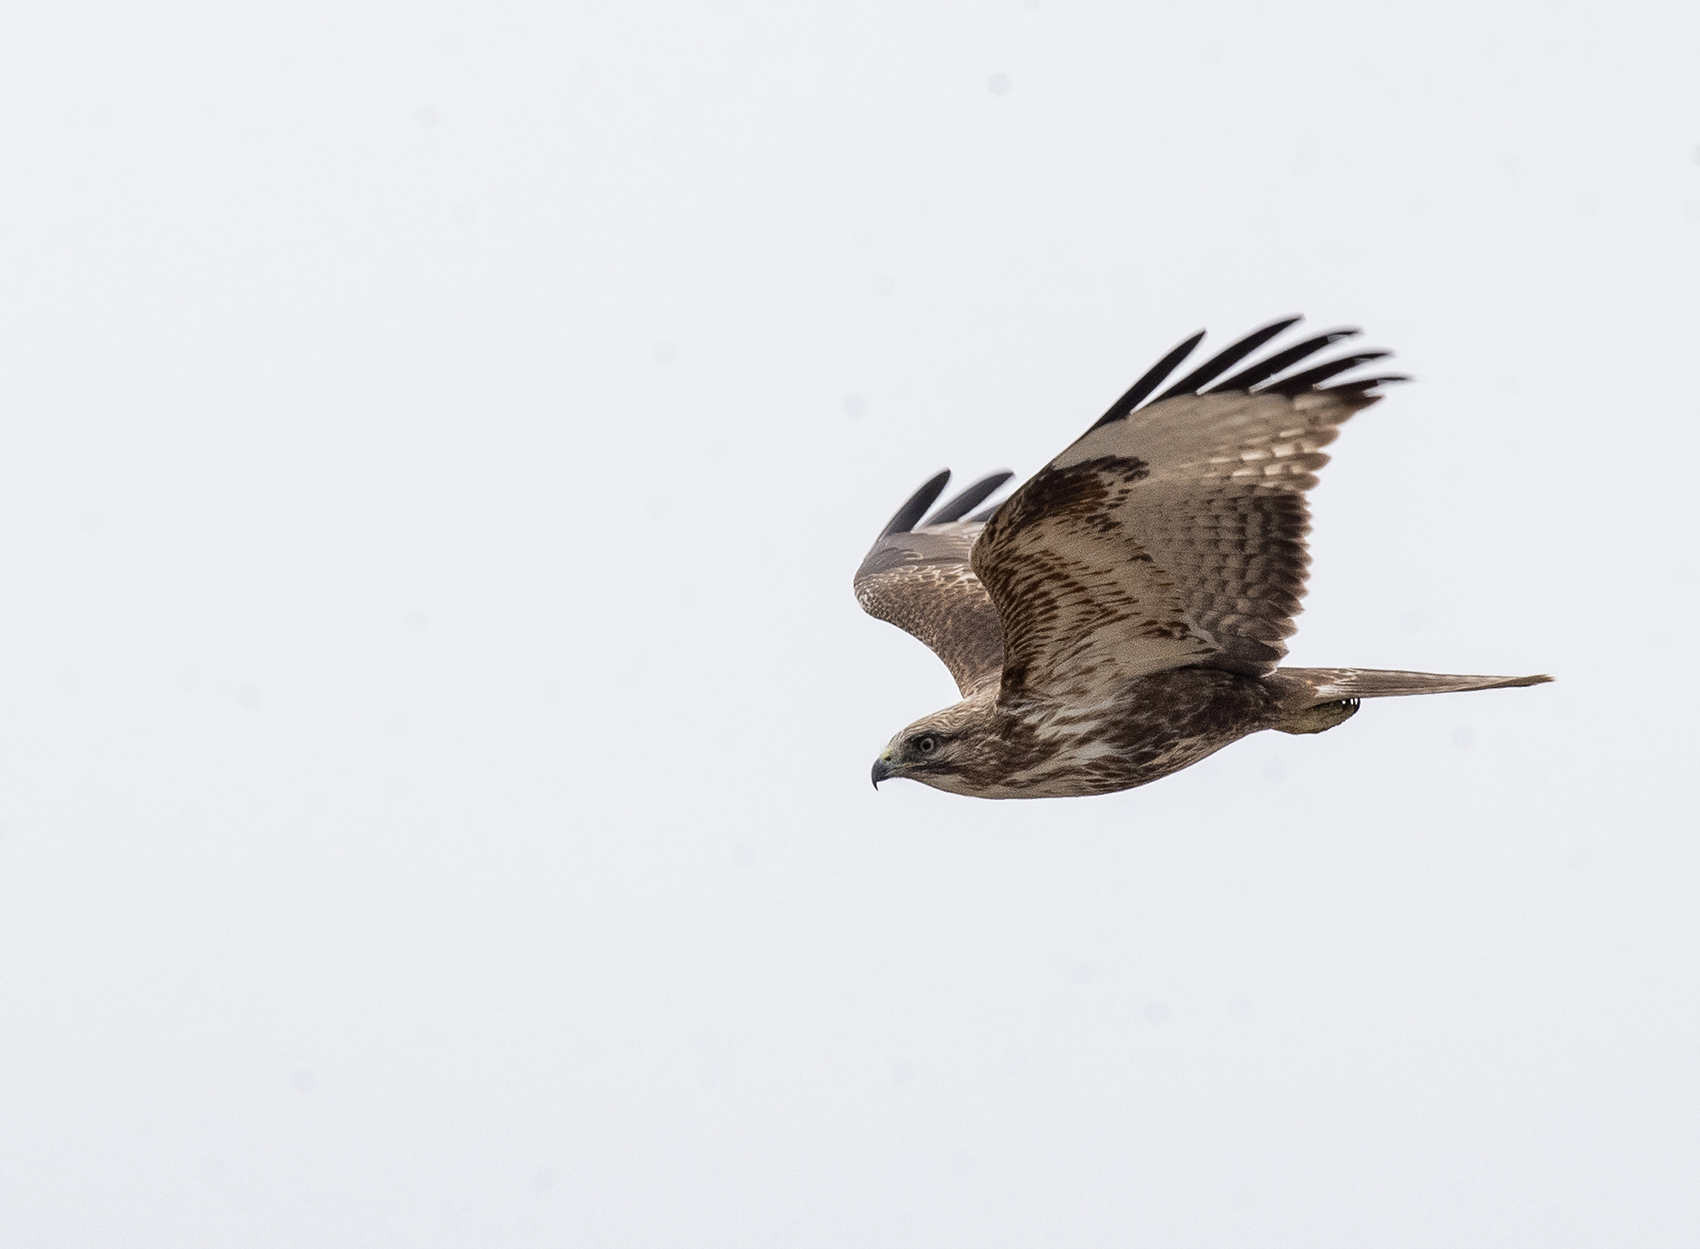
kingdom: Animalia
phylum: Chordata
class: Aves
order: Accipitriformes
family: Accipitridae
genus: Buteo
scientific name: Buteo japonicus
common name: Eastern buzzard
